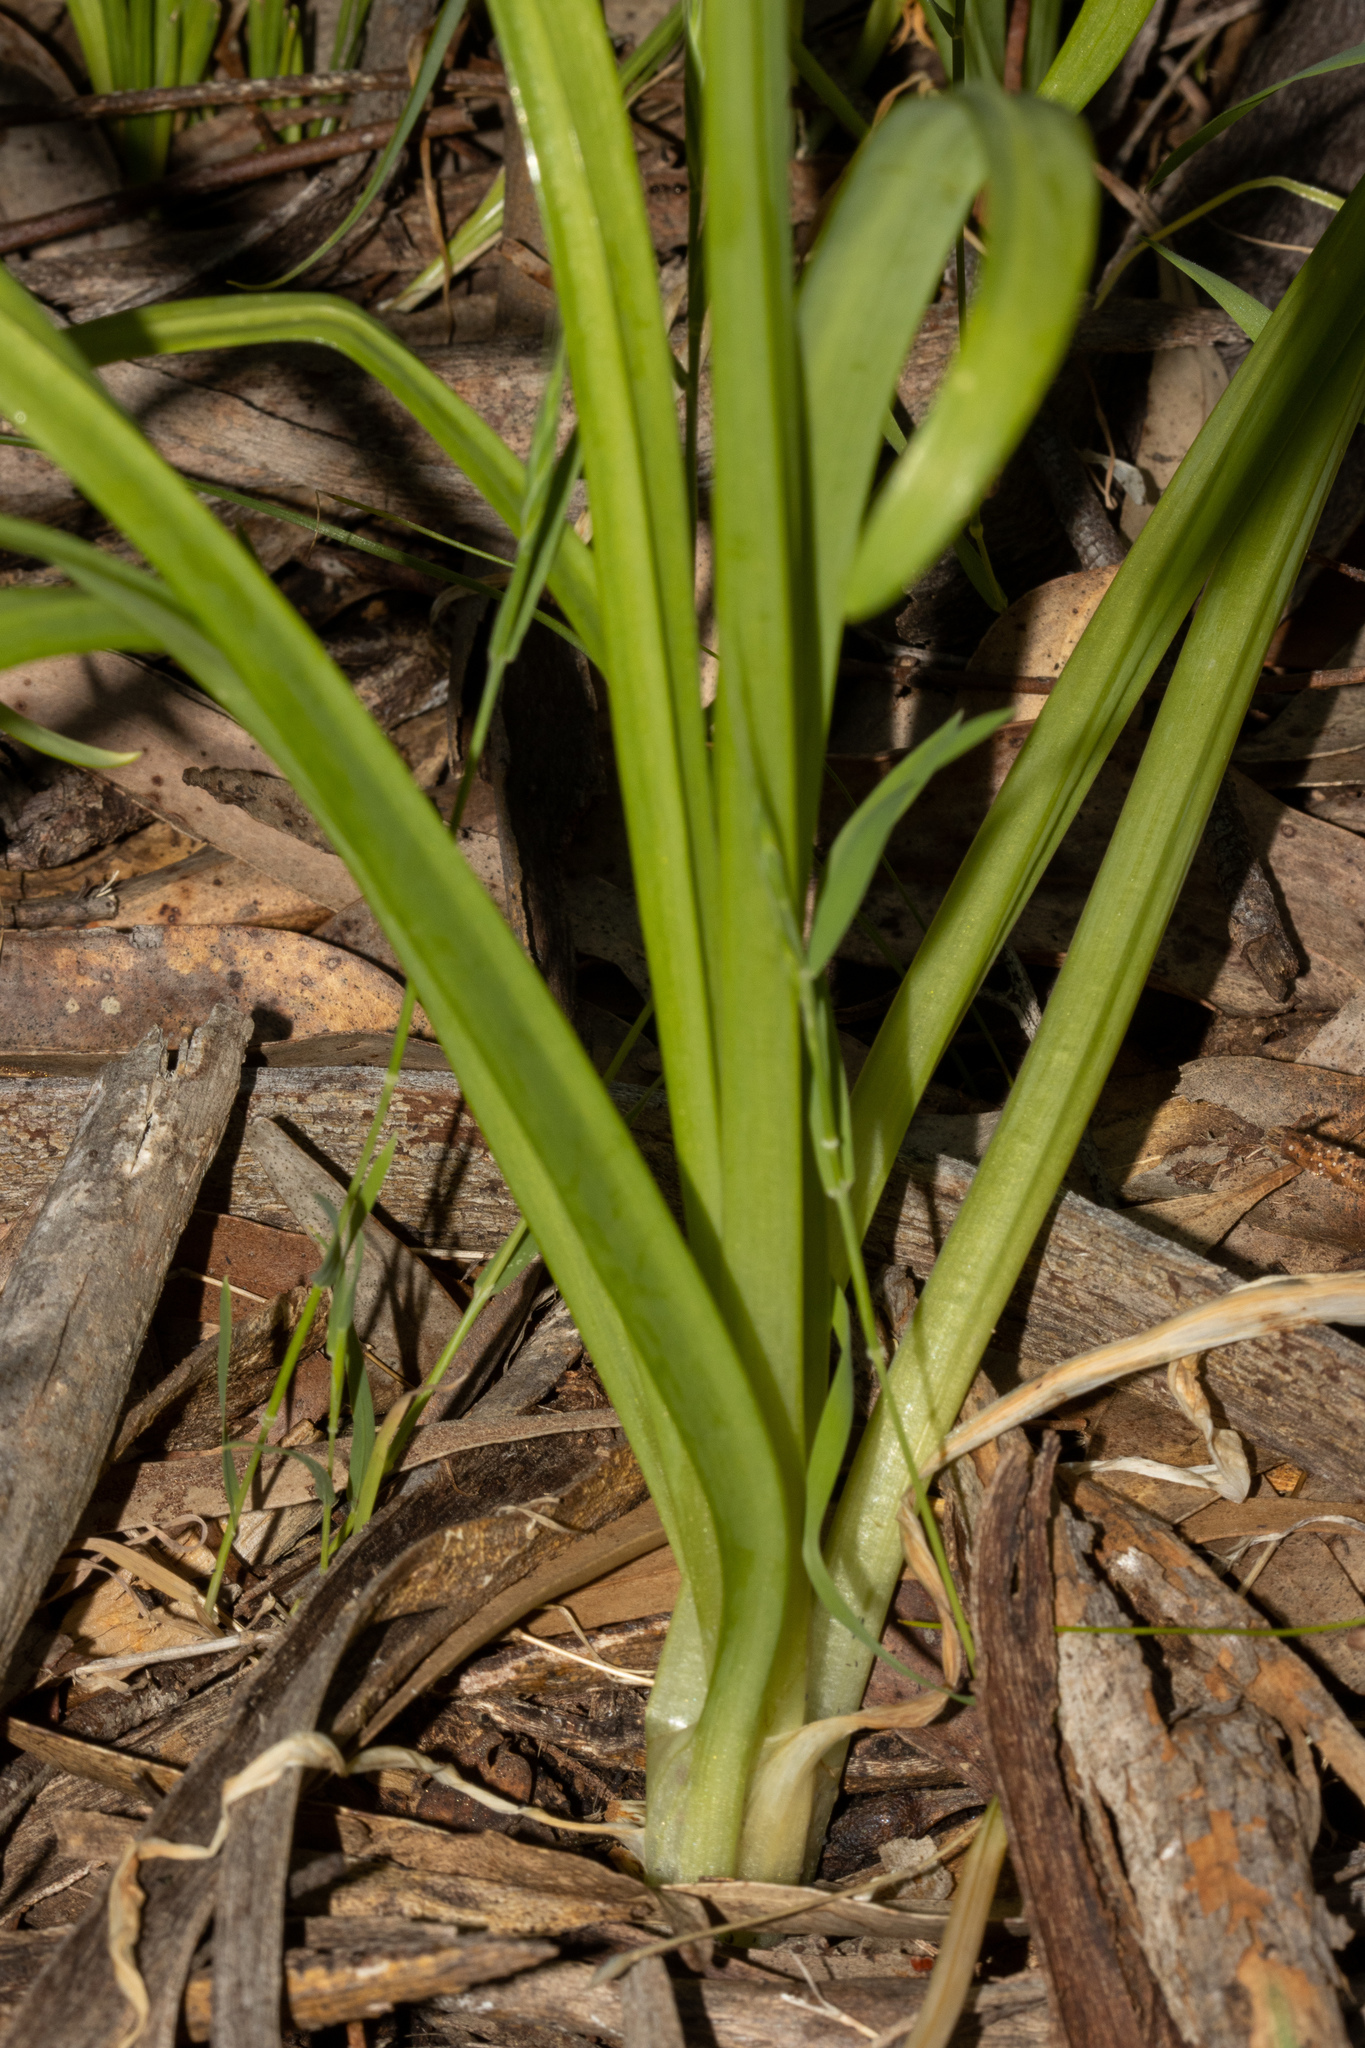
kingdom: Plantae
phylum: Tracheophyta
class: Liliopsida
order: Asparagales
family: Amaryllidaceae
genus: Allium
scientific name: Allium triquetrum
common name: Three-cornered garlic
